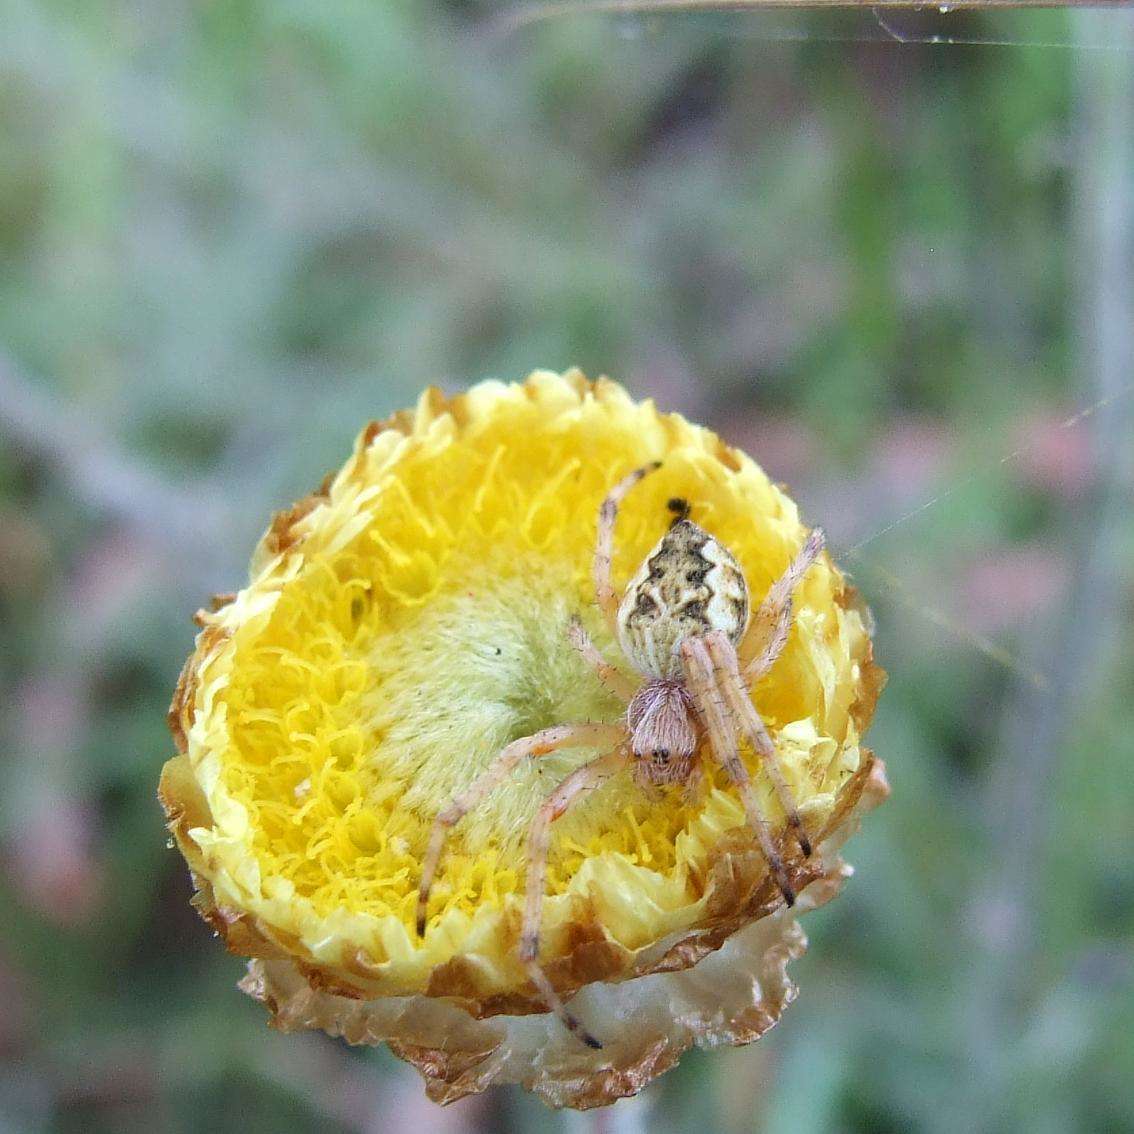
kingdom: Plantae
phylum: Tracheophyta
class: Magnoliopsida
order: Asterales
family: Asteraceae
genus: Coronidium
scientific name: Coronidium scorpioides
